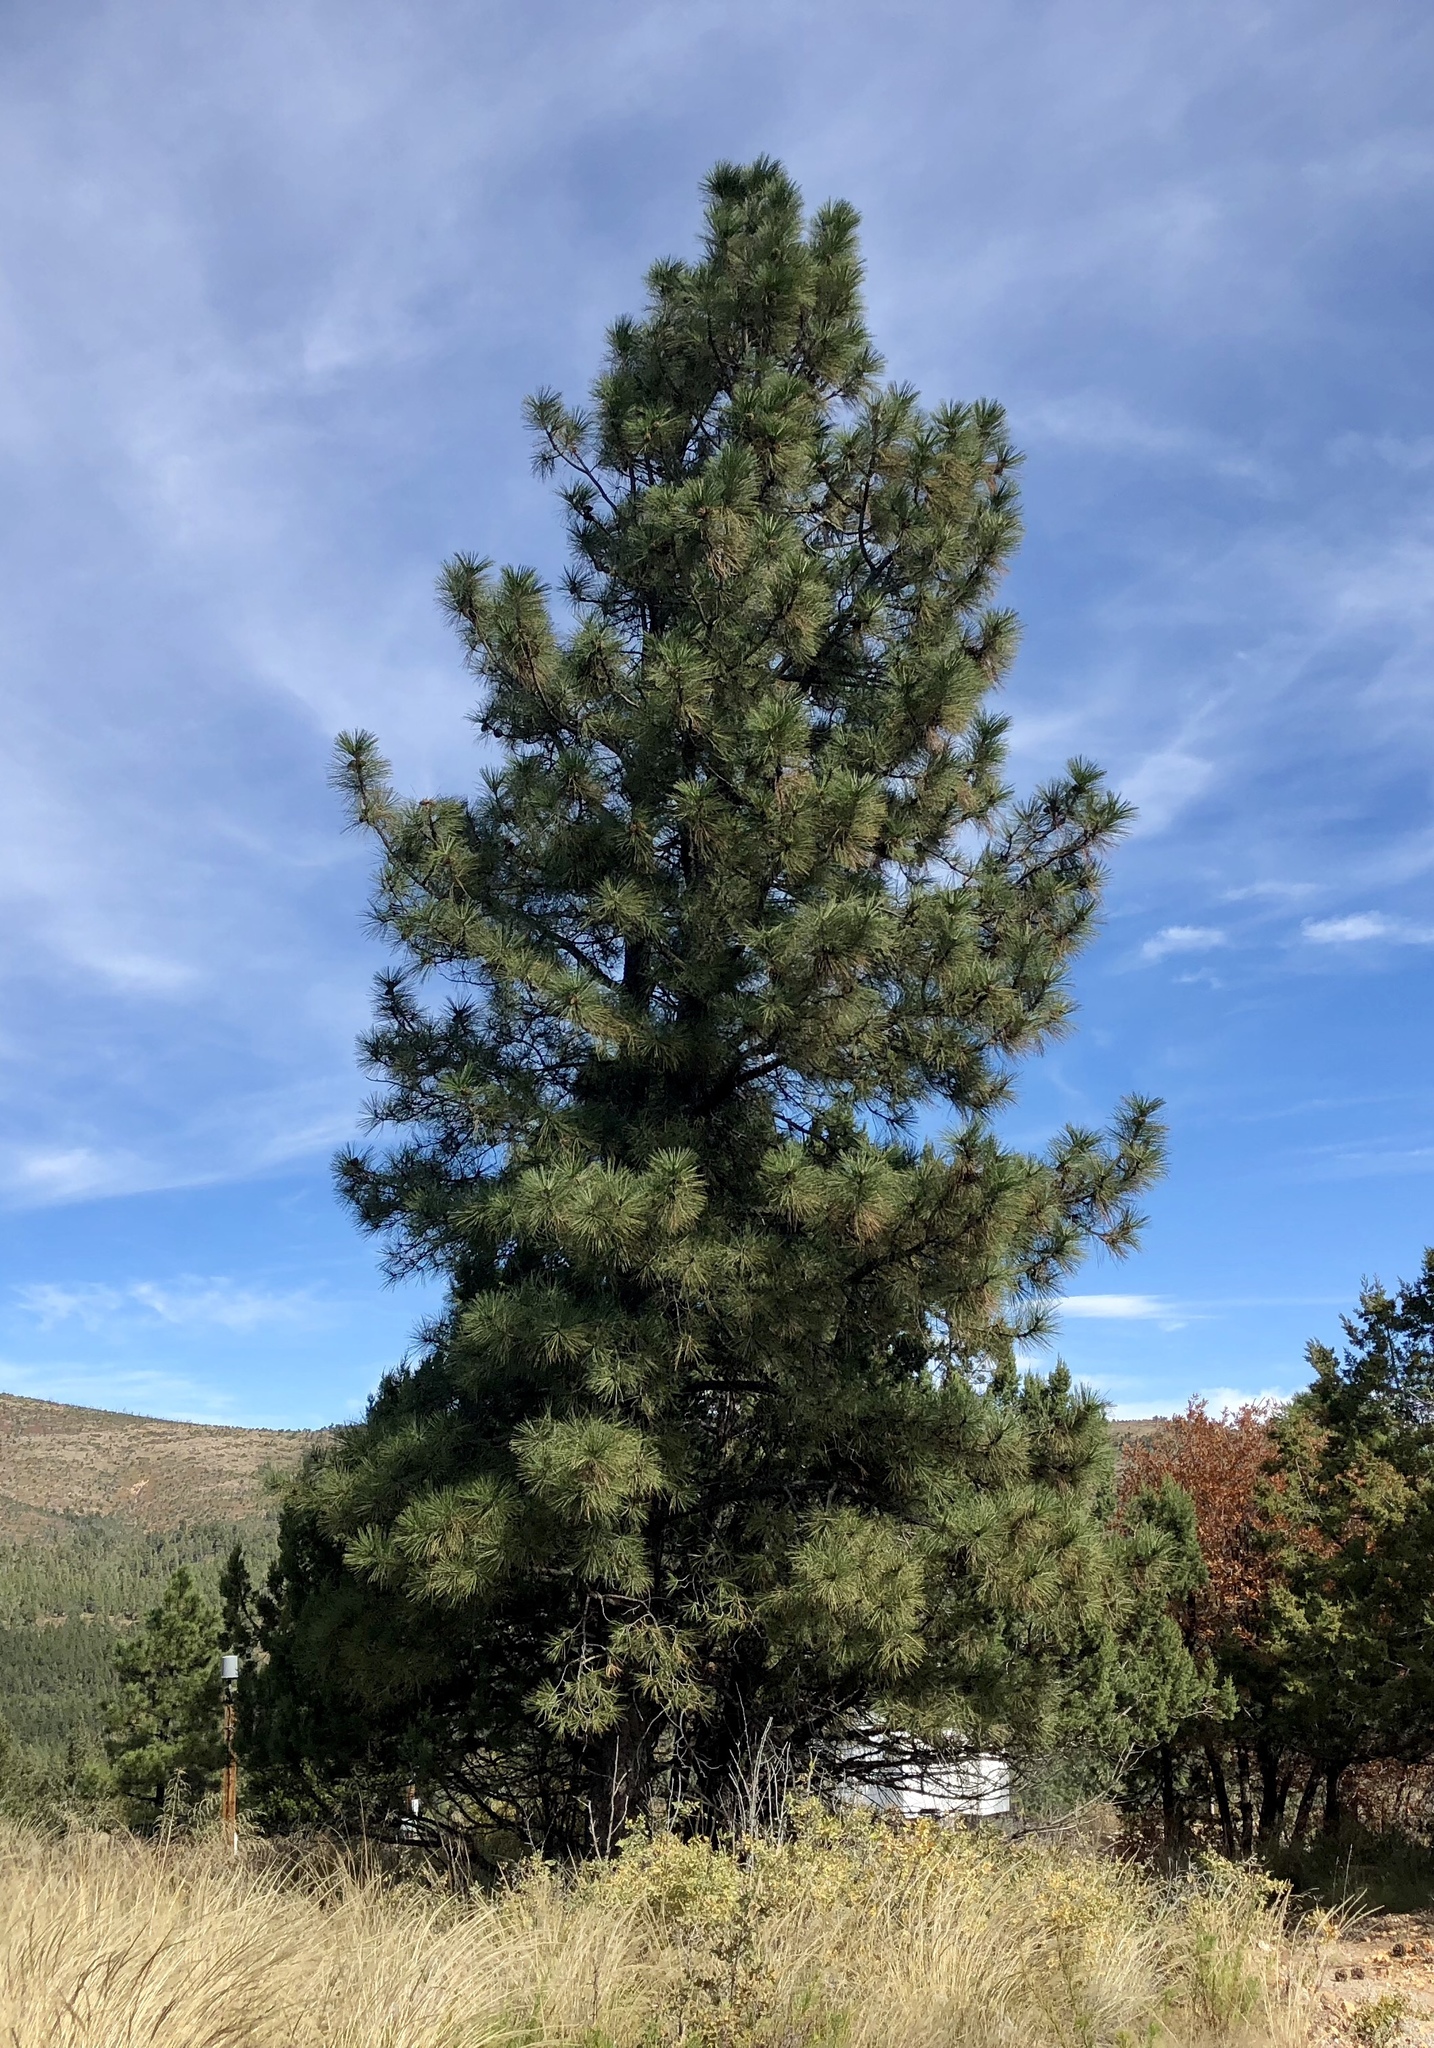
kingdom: Plantae
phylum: Tracheophyta
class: Pinopsida
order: Pinales
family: Pinaceae
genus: Pinus
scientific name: Pinus ponderosa
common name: Western yellow-pine
